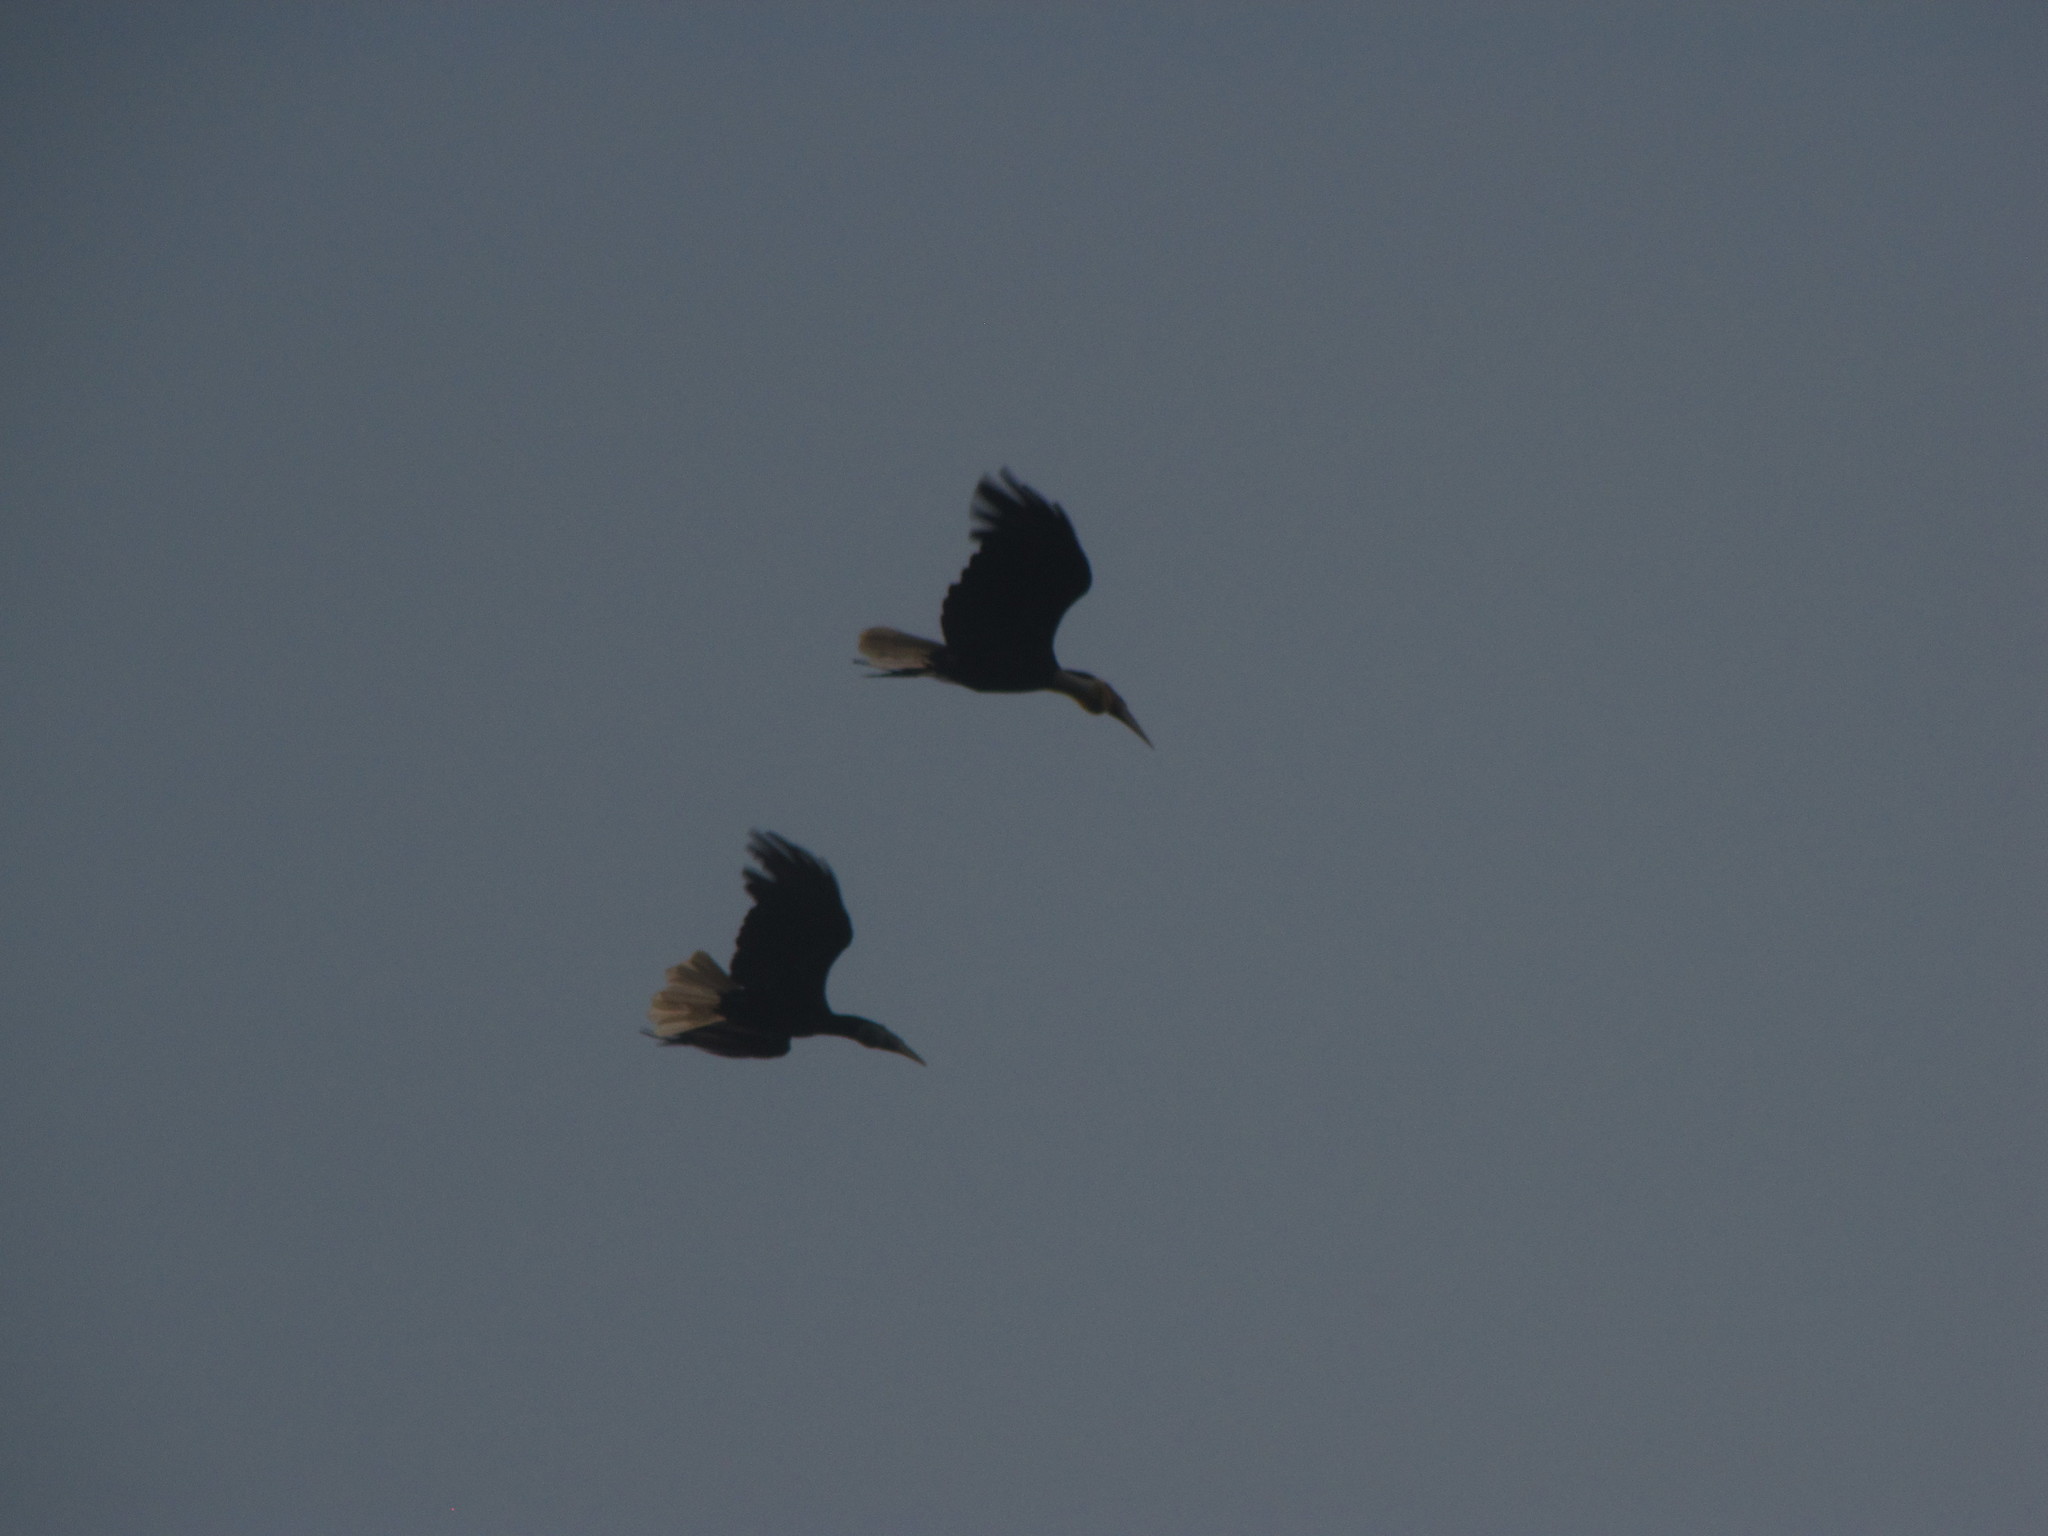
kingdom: Animalia
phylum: Chordata
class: Aves
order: Bucerotiformes
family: Bucerotidae
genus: Rhyticeros
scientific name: Rhyticeros undulatus
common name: Wreathed hornbill
